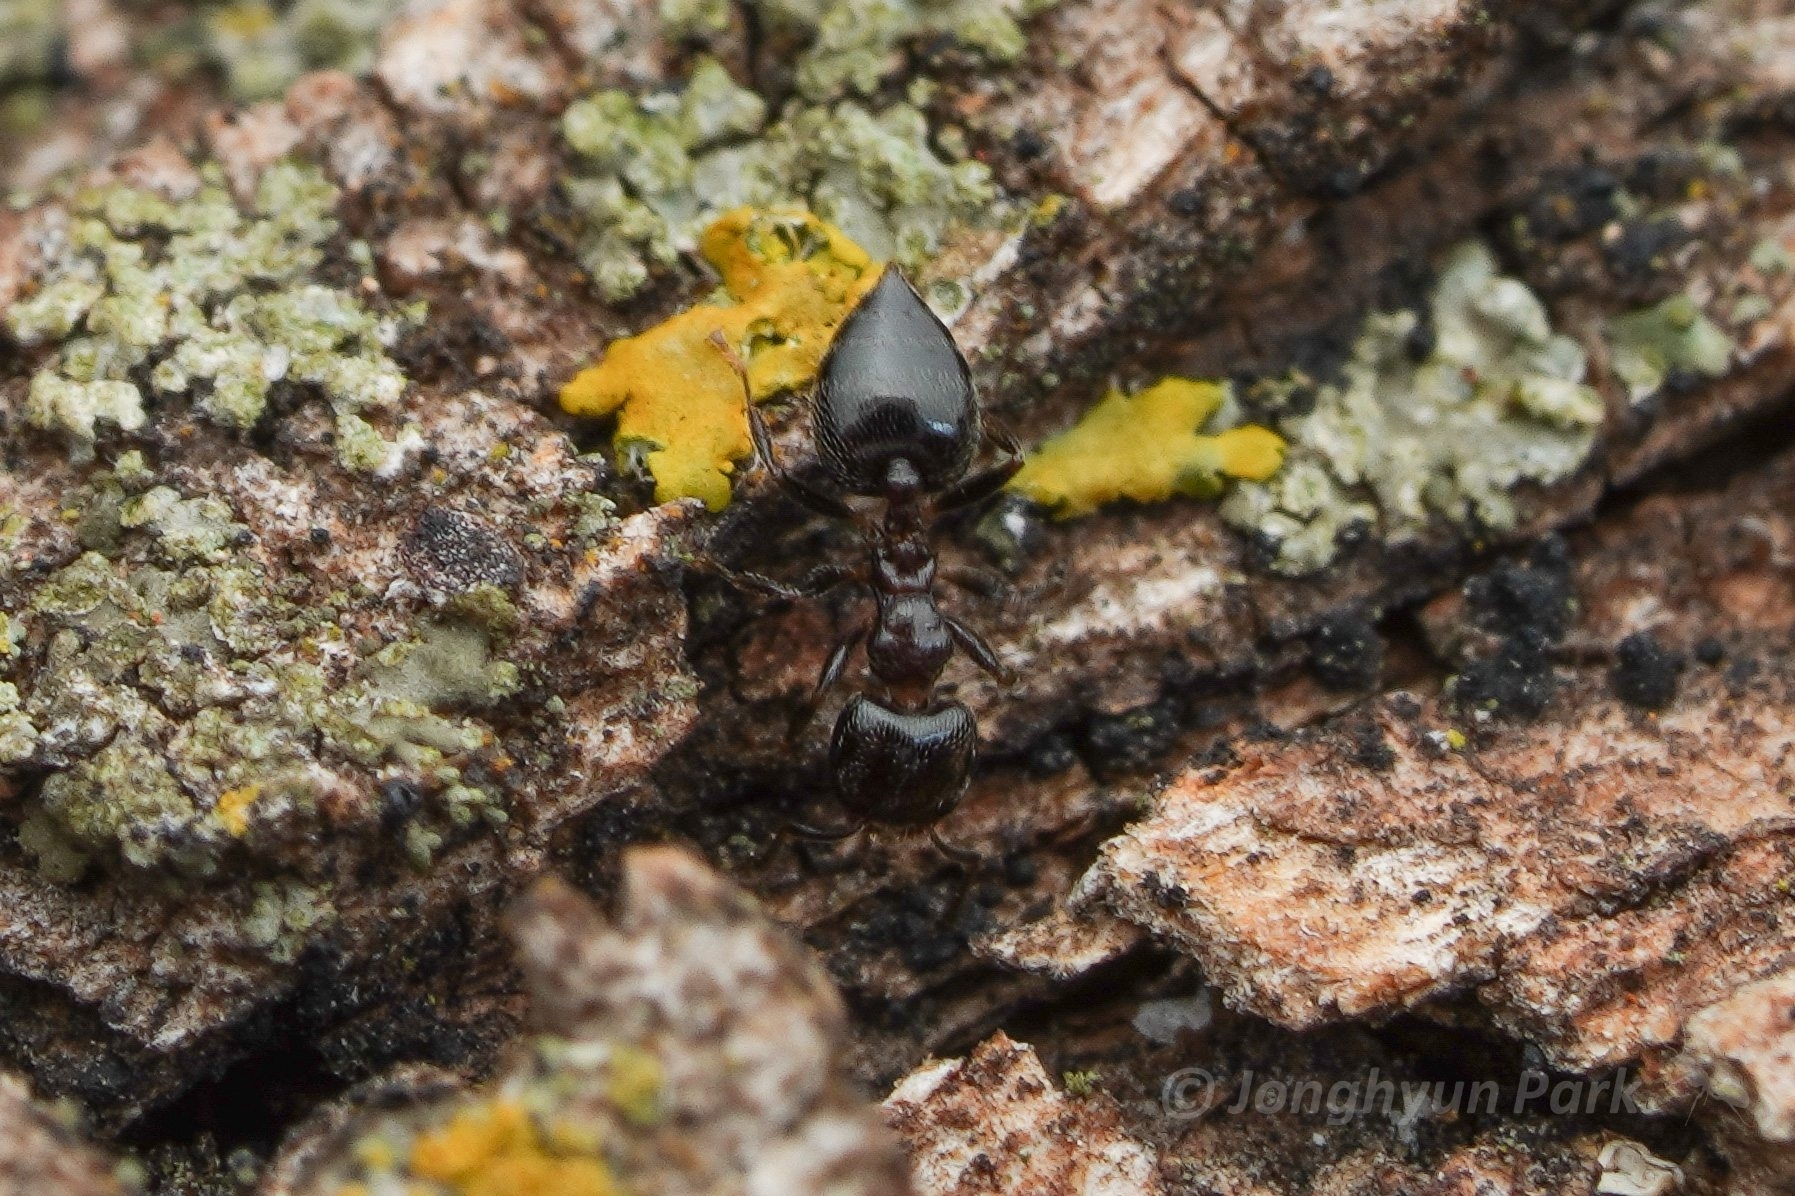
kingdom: Animalia
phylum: Arthropoda
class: Insecta
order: Hymenoptera
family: Formicidae
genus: Crematogaster
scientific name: Crematogaster torosa
